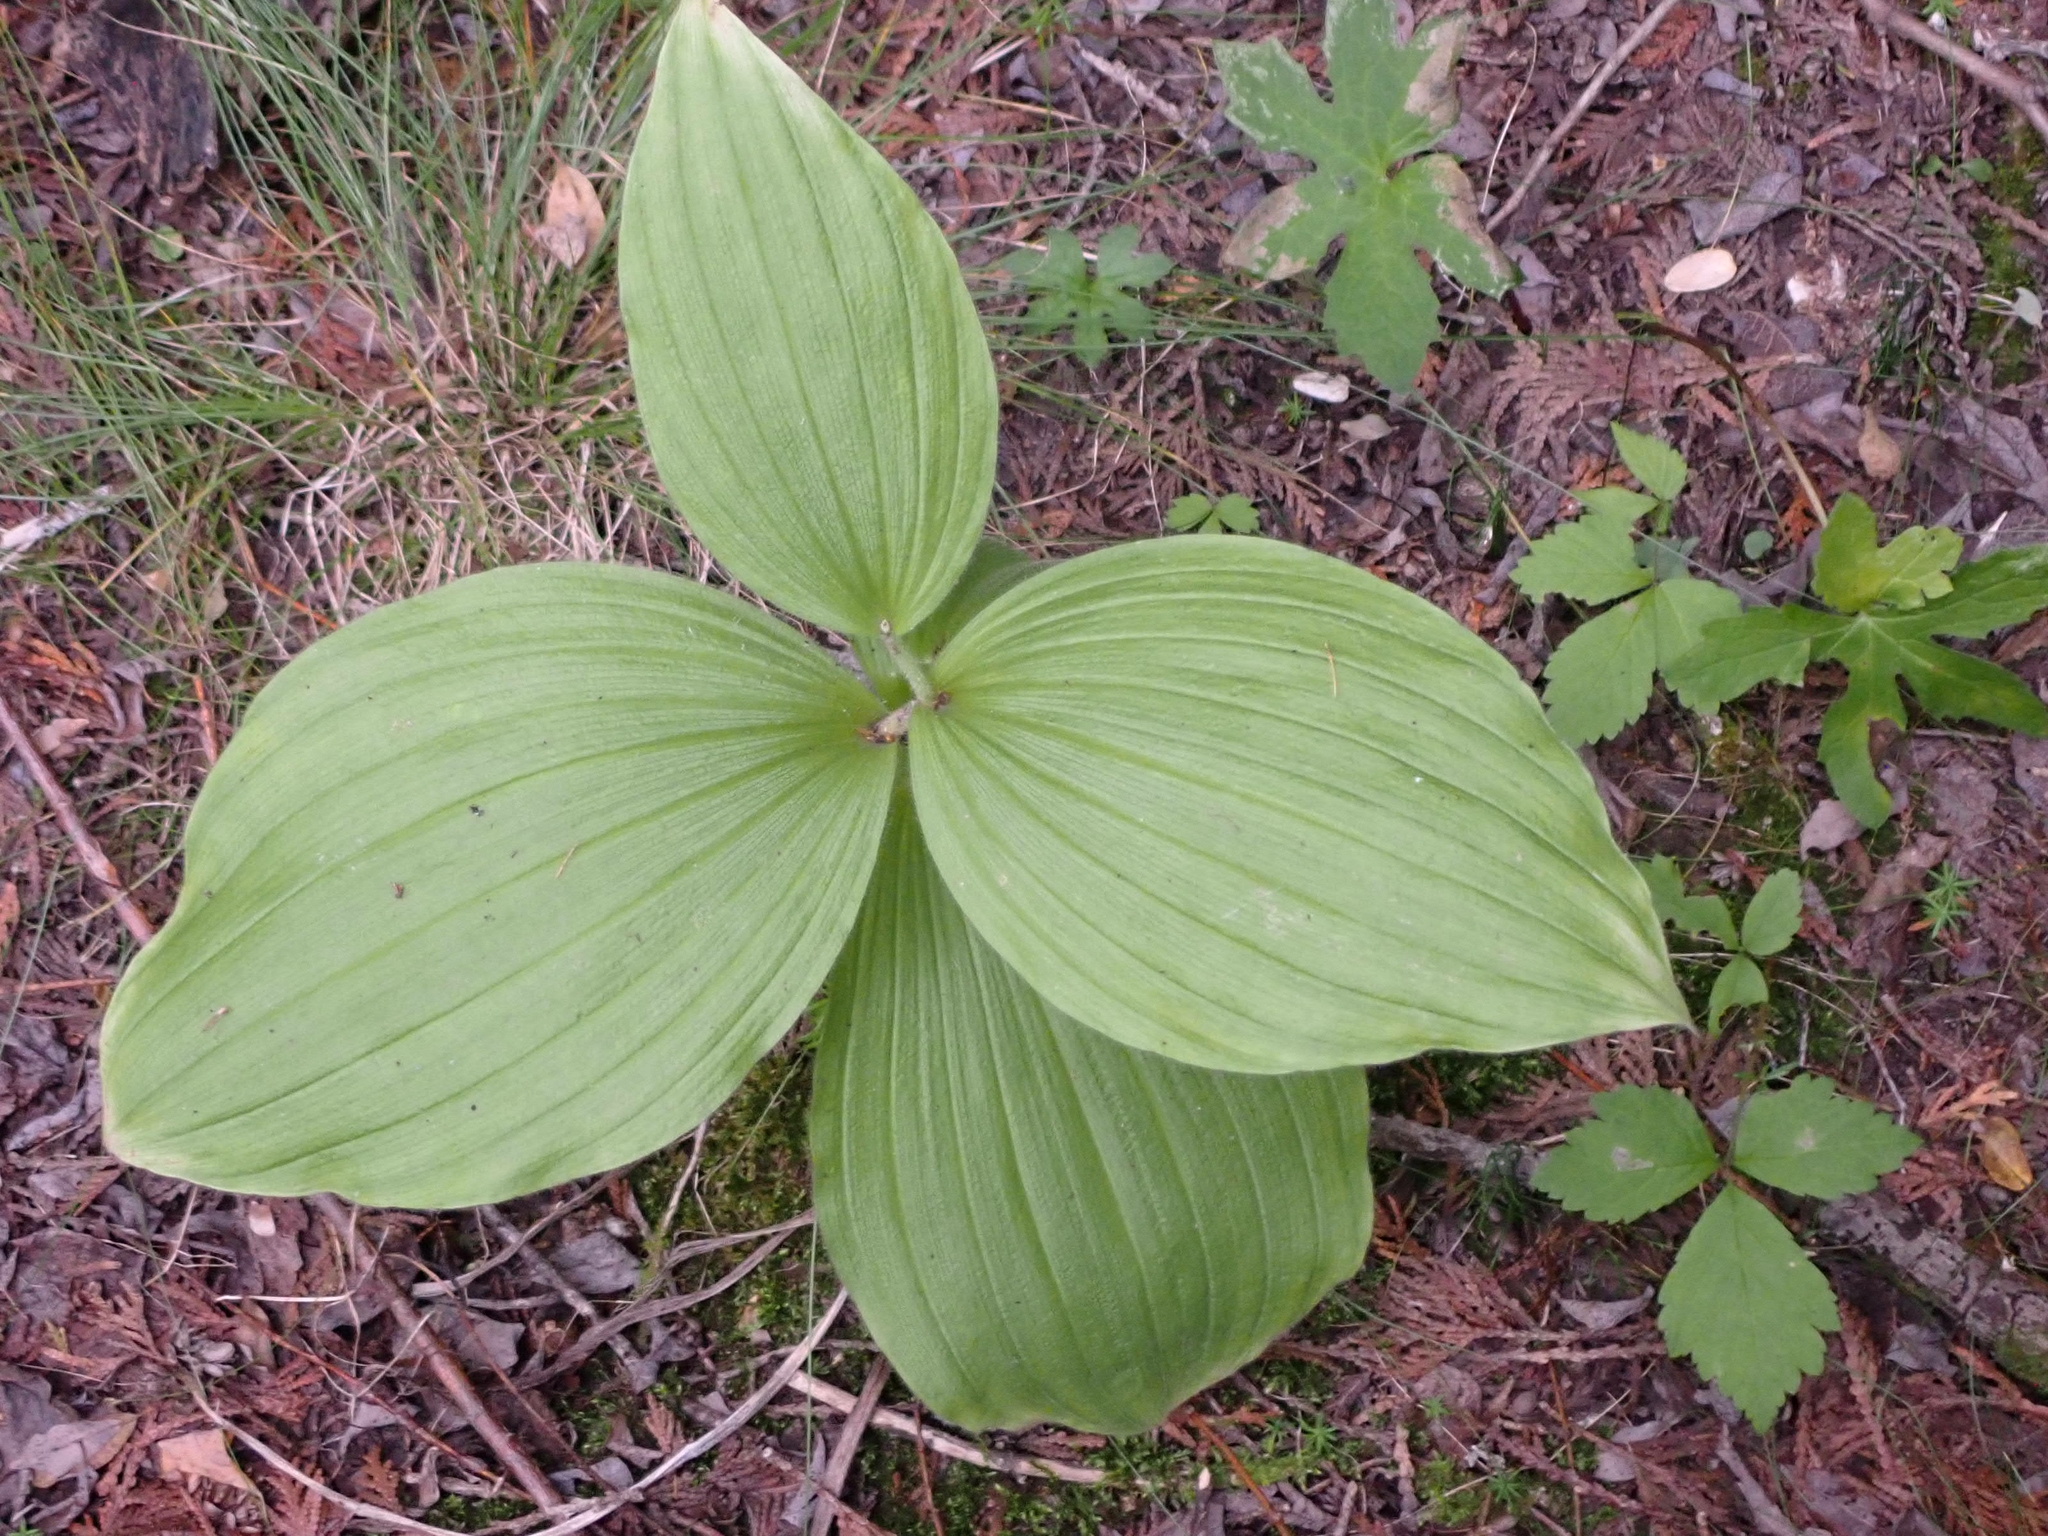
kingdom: Plantae
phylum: Tracheophyta
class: Liliopsida
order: Asparagales
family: Orchidaceae
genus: Cypripedium
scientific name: Cypripedium reginae
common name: Queen lady's-slipper
